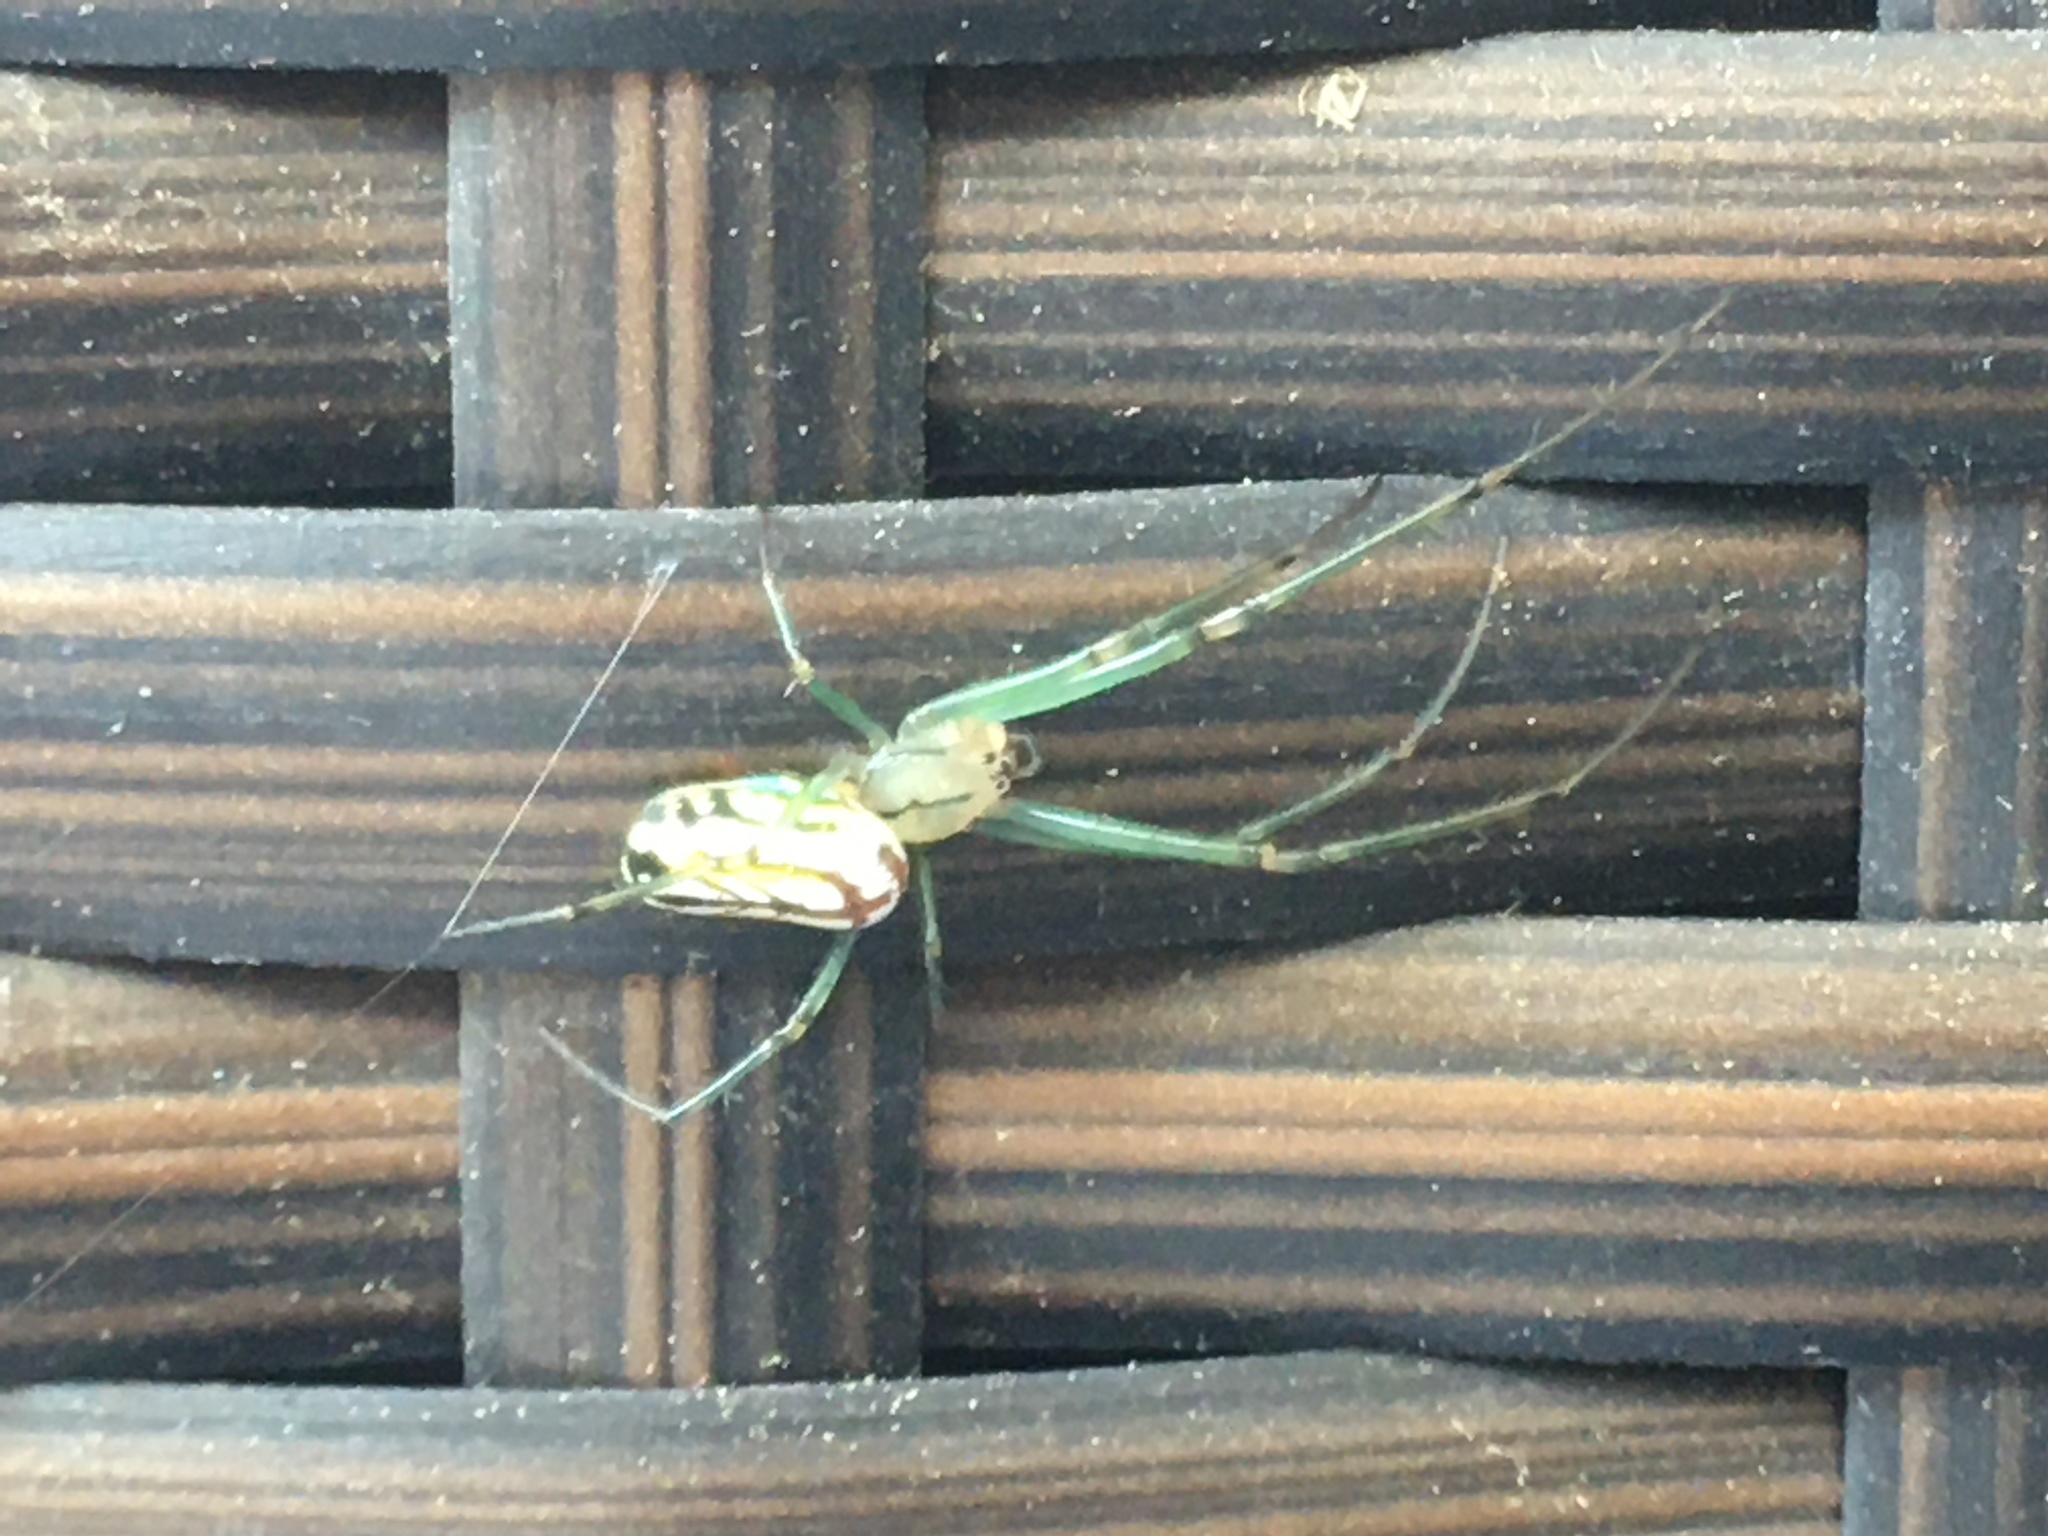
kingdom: Animalia
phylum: Arthropoda
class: Arachnida
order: Araneae
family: Tetragnathidae
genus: Leucauge
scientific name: Leucauge venusta
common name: Longjawed orb weavers
